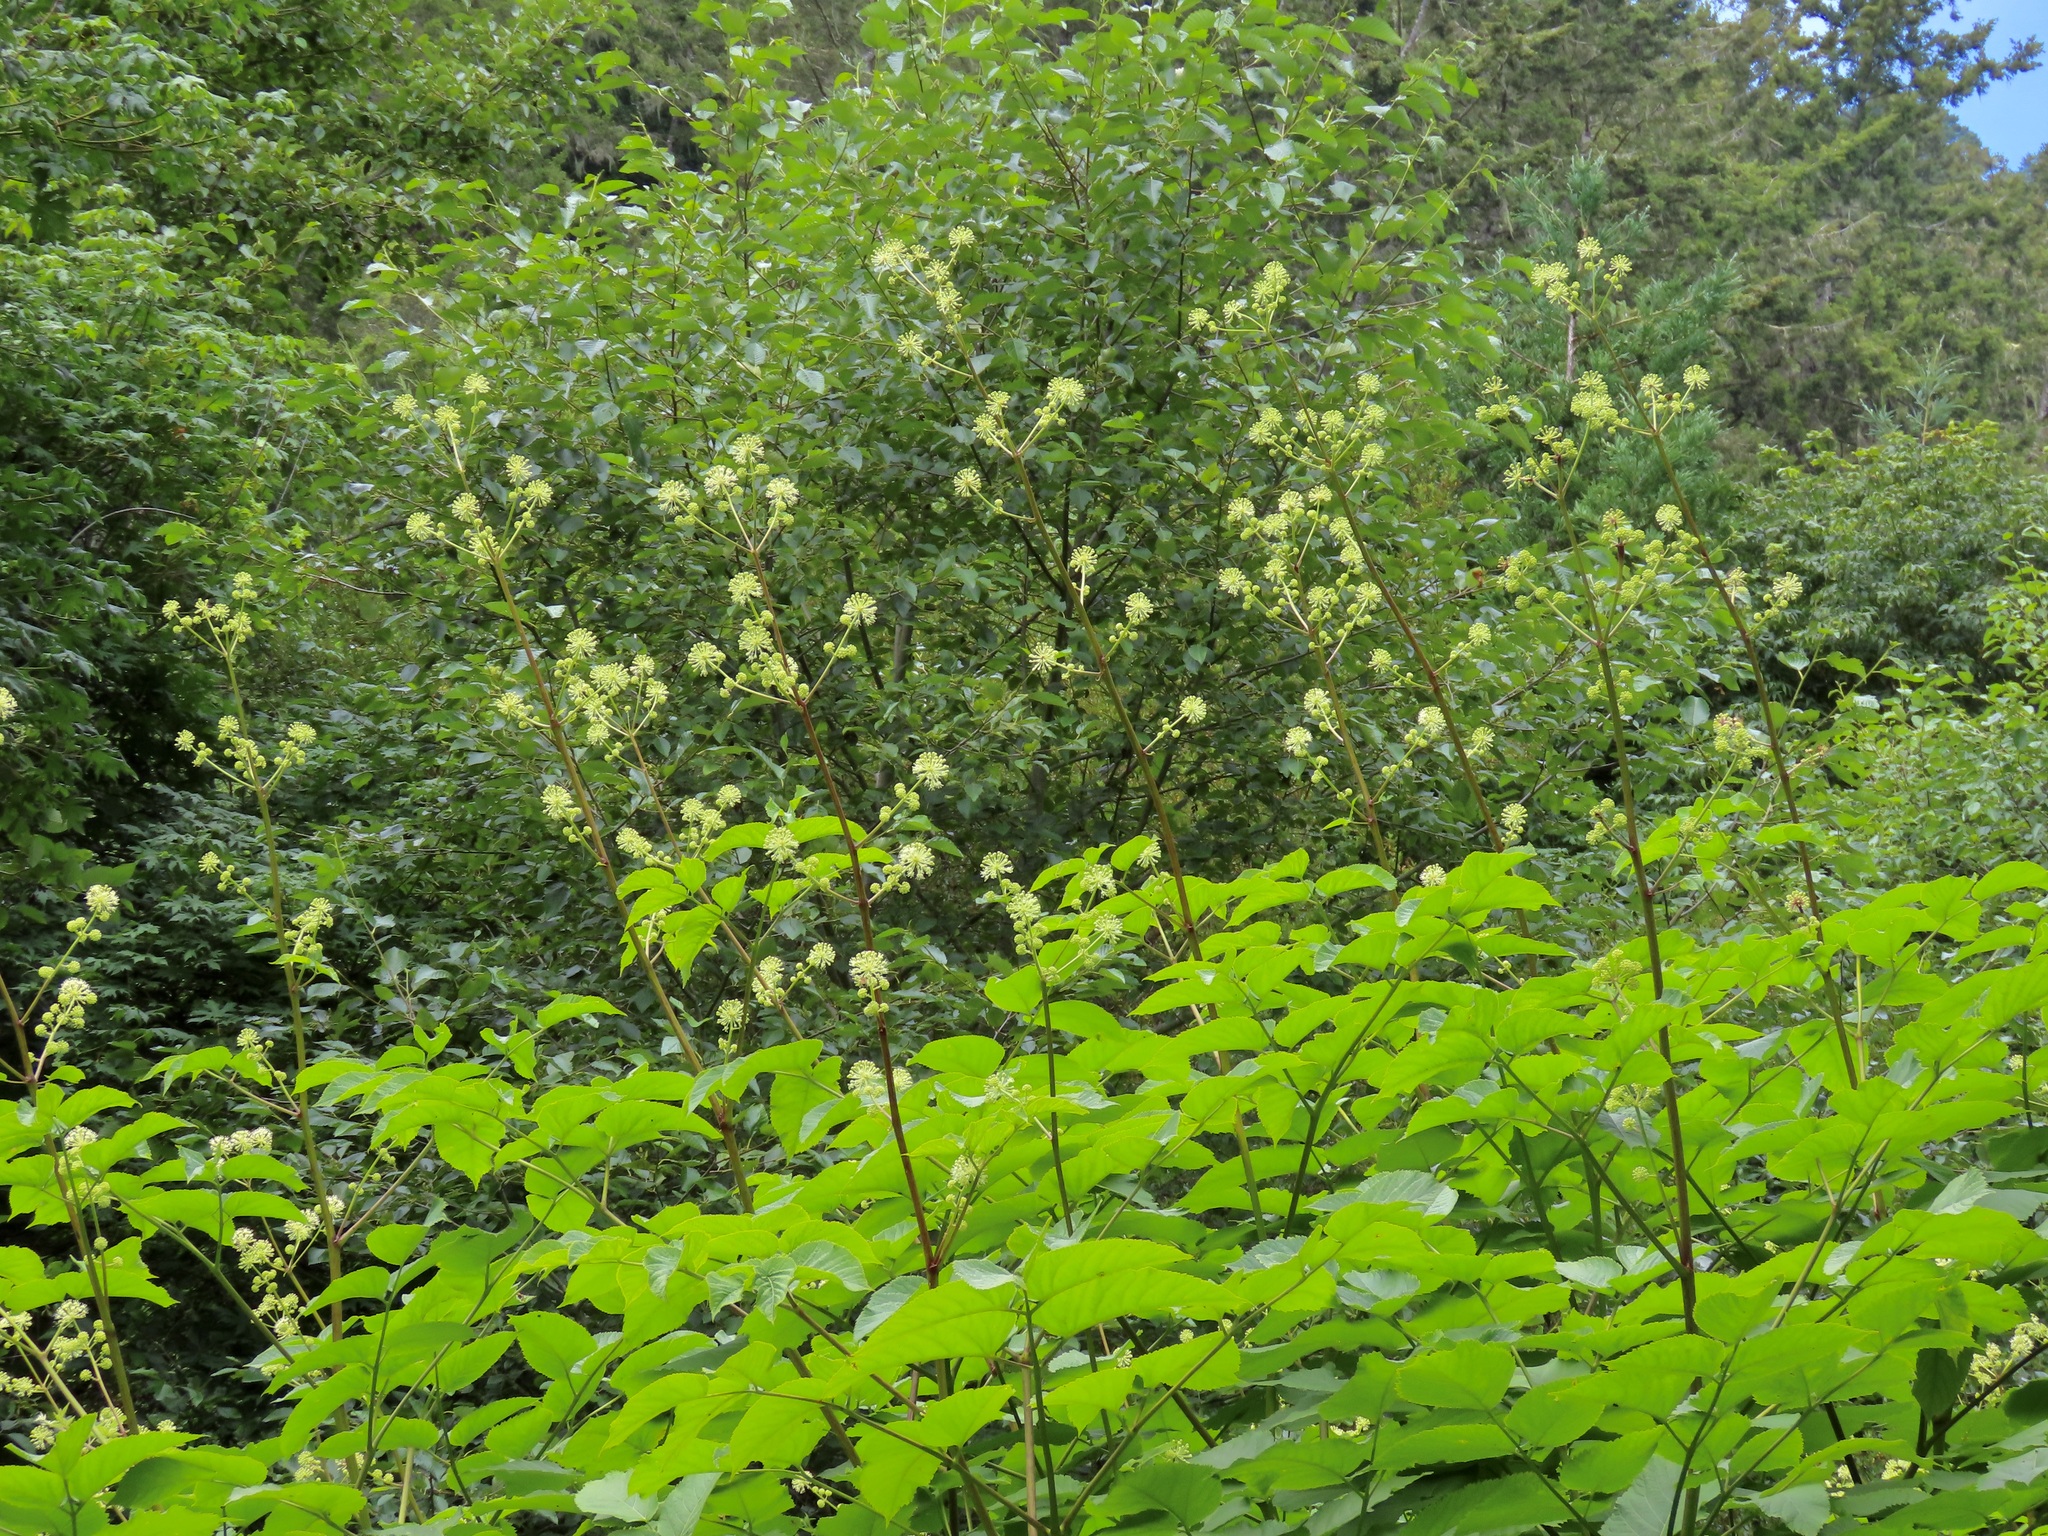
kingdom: Plantae
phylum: Tracheophyta
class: Magnoliopsida
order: Apiales
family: Araliaceae
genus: Aralia
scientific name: Aralia californica
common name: California-ginseng
